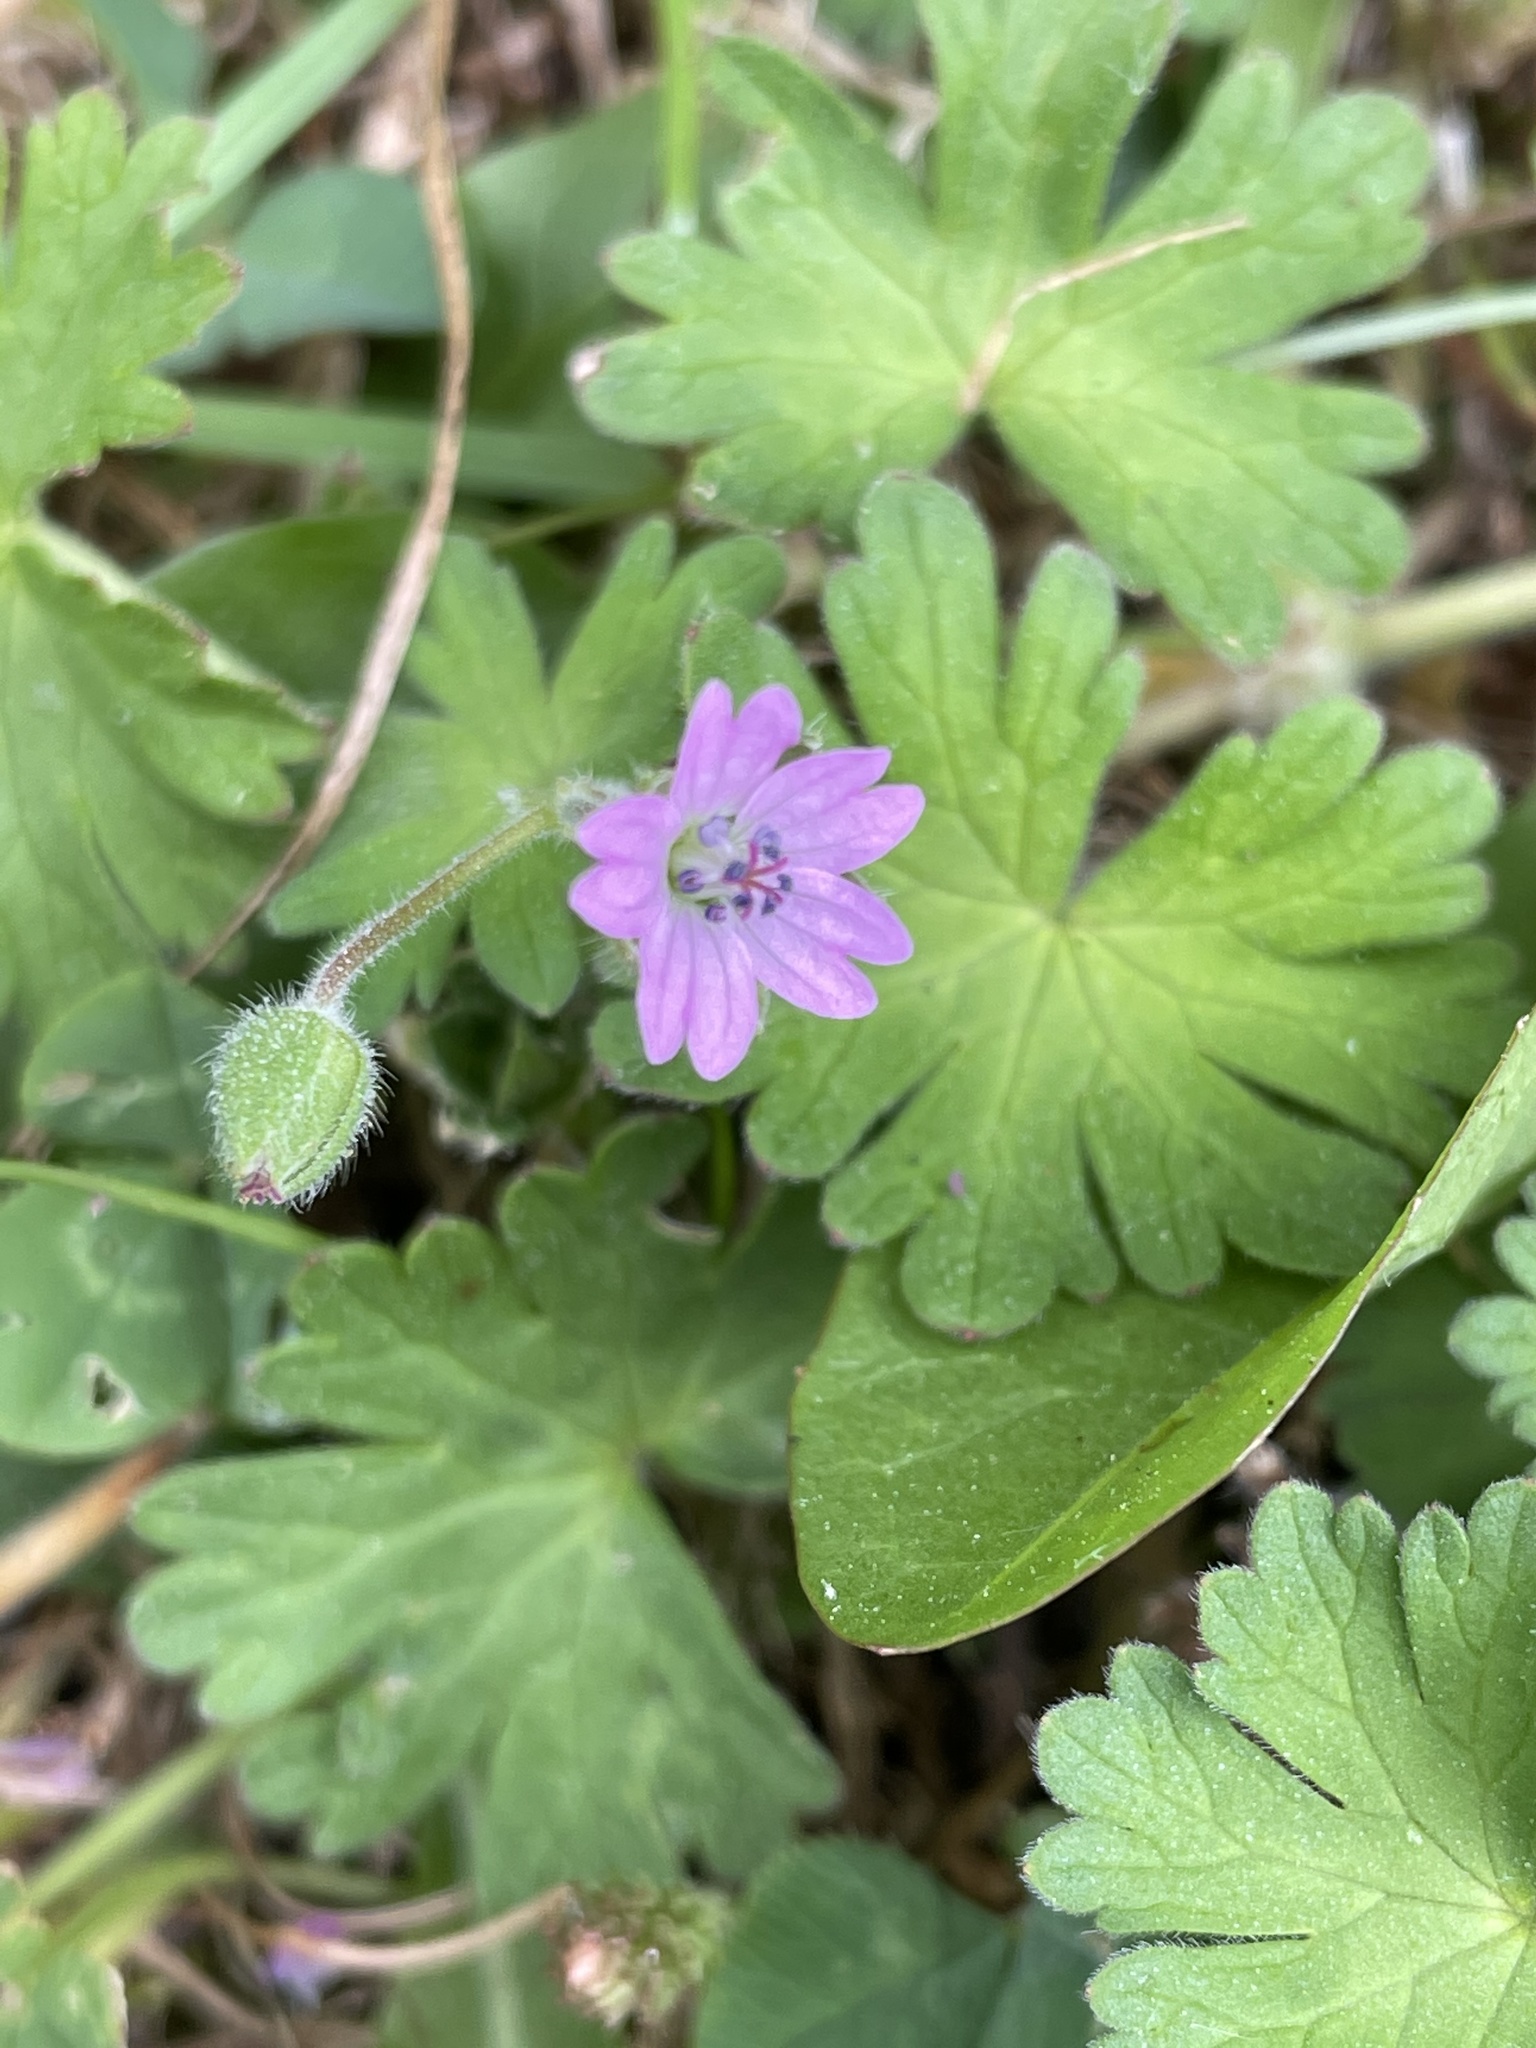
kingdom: Plantae
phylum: Tracheophyta
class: Magnoliopsida
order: Geraniales
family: Geraniaceae
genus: Geranium
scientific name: Geranium molle
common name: Dove's-foot crane's-bill
